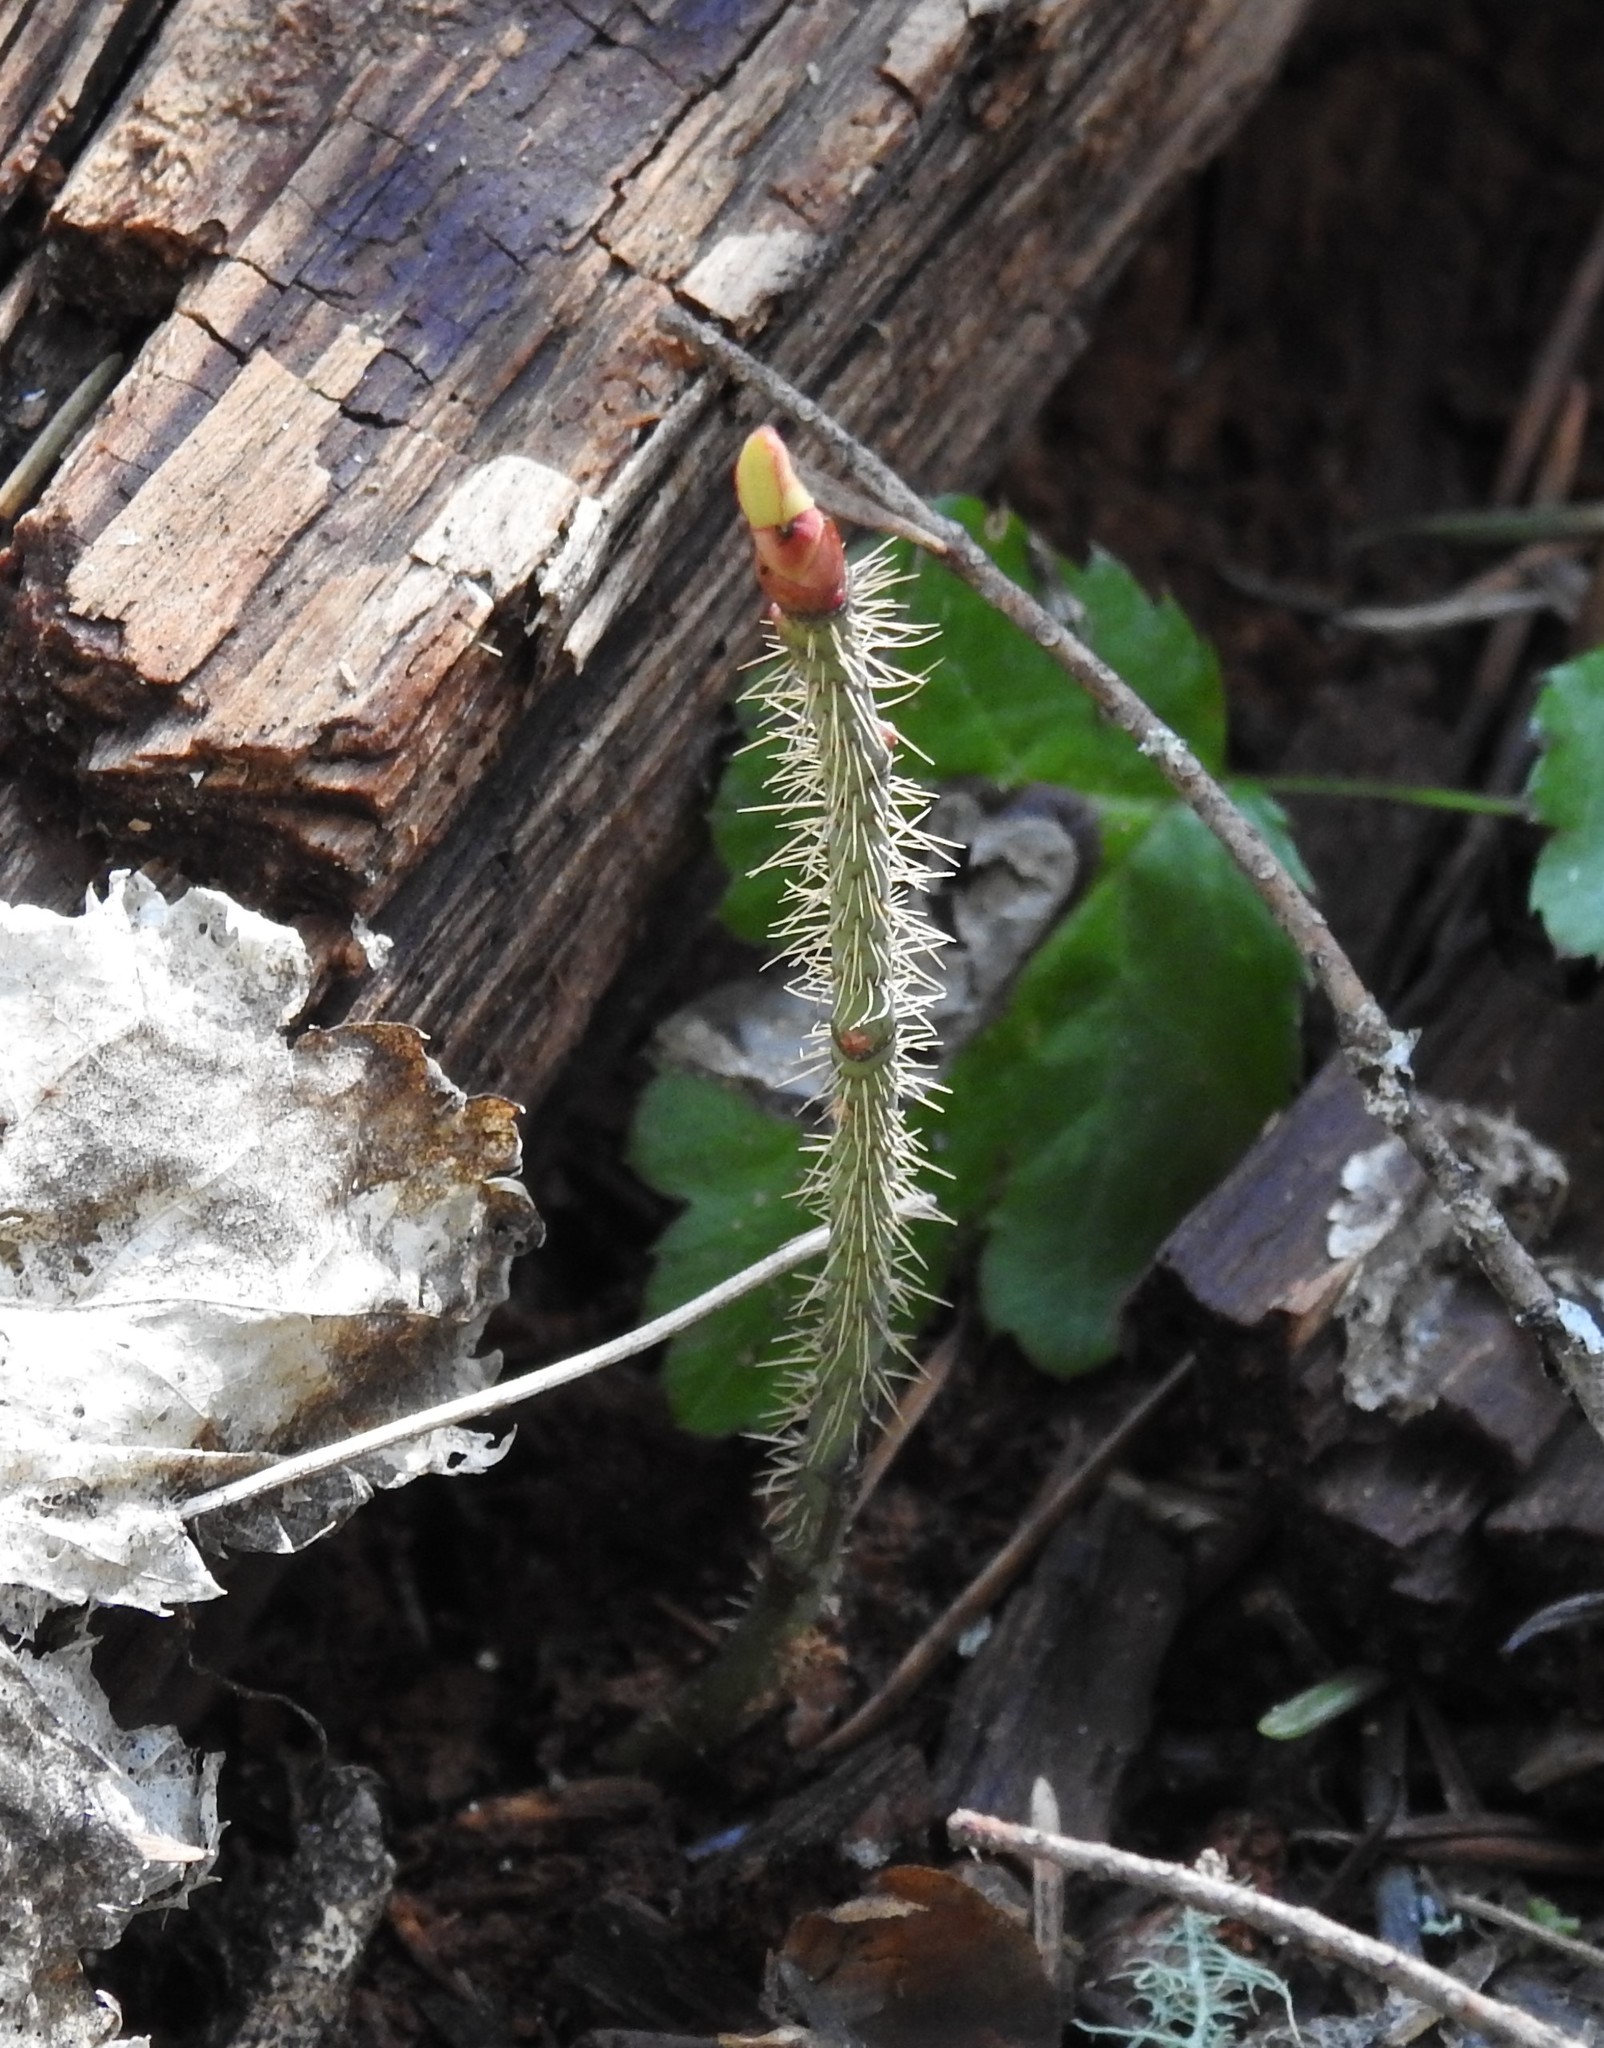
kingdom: Plantae
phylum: Tracheophyta
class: Magnoliopsida
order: Rosales
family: Rosaceae
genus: Rosa
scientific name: Rosa gymnocarpa
